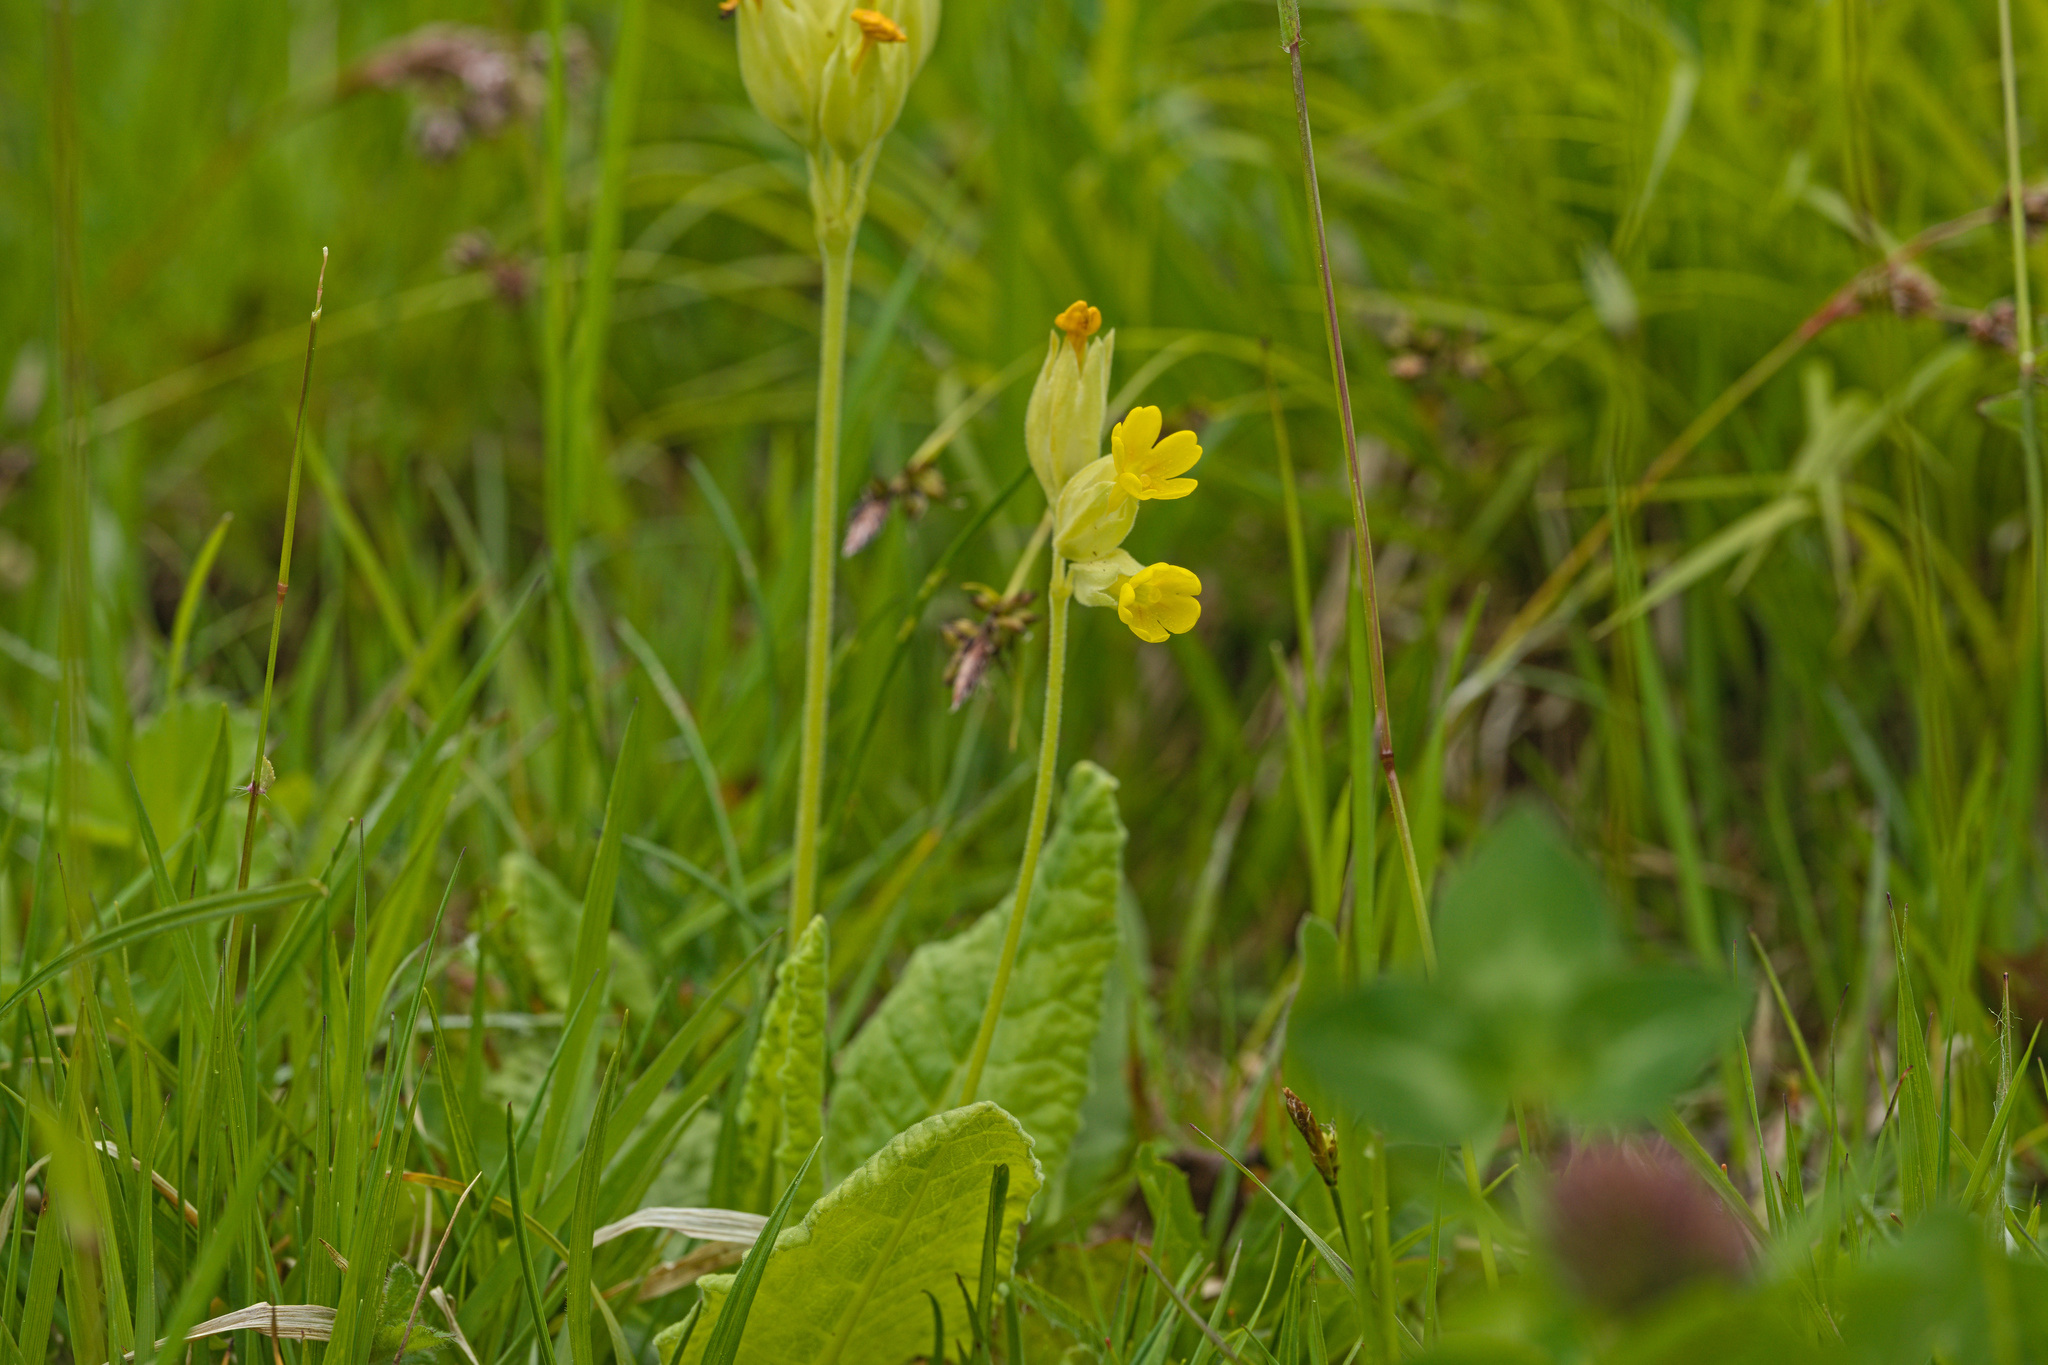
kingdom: Plantae
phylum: Tracheophyta
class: Magnoliopsida
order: Ericales
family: Primulaceae
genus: Primula
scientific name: Primula veris
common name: Cowslip
